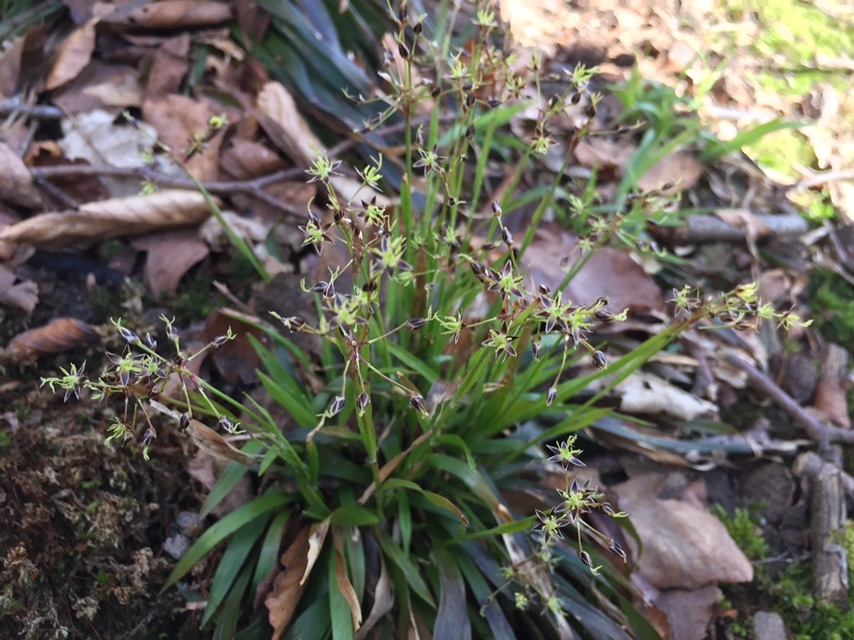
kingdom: Plantae
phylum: Tracheophyta
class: Liliopsida
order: Poales
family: Juncaceae
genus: Luzula
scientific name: Luzula pilosa
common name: Hairy wood-rush
